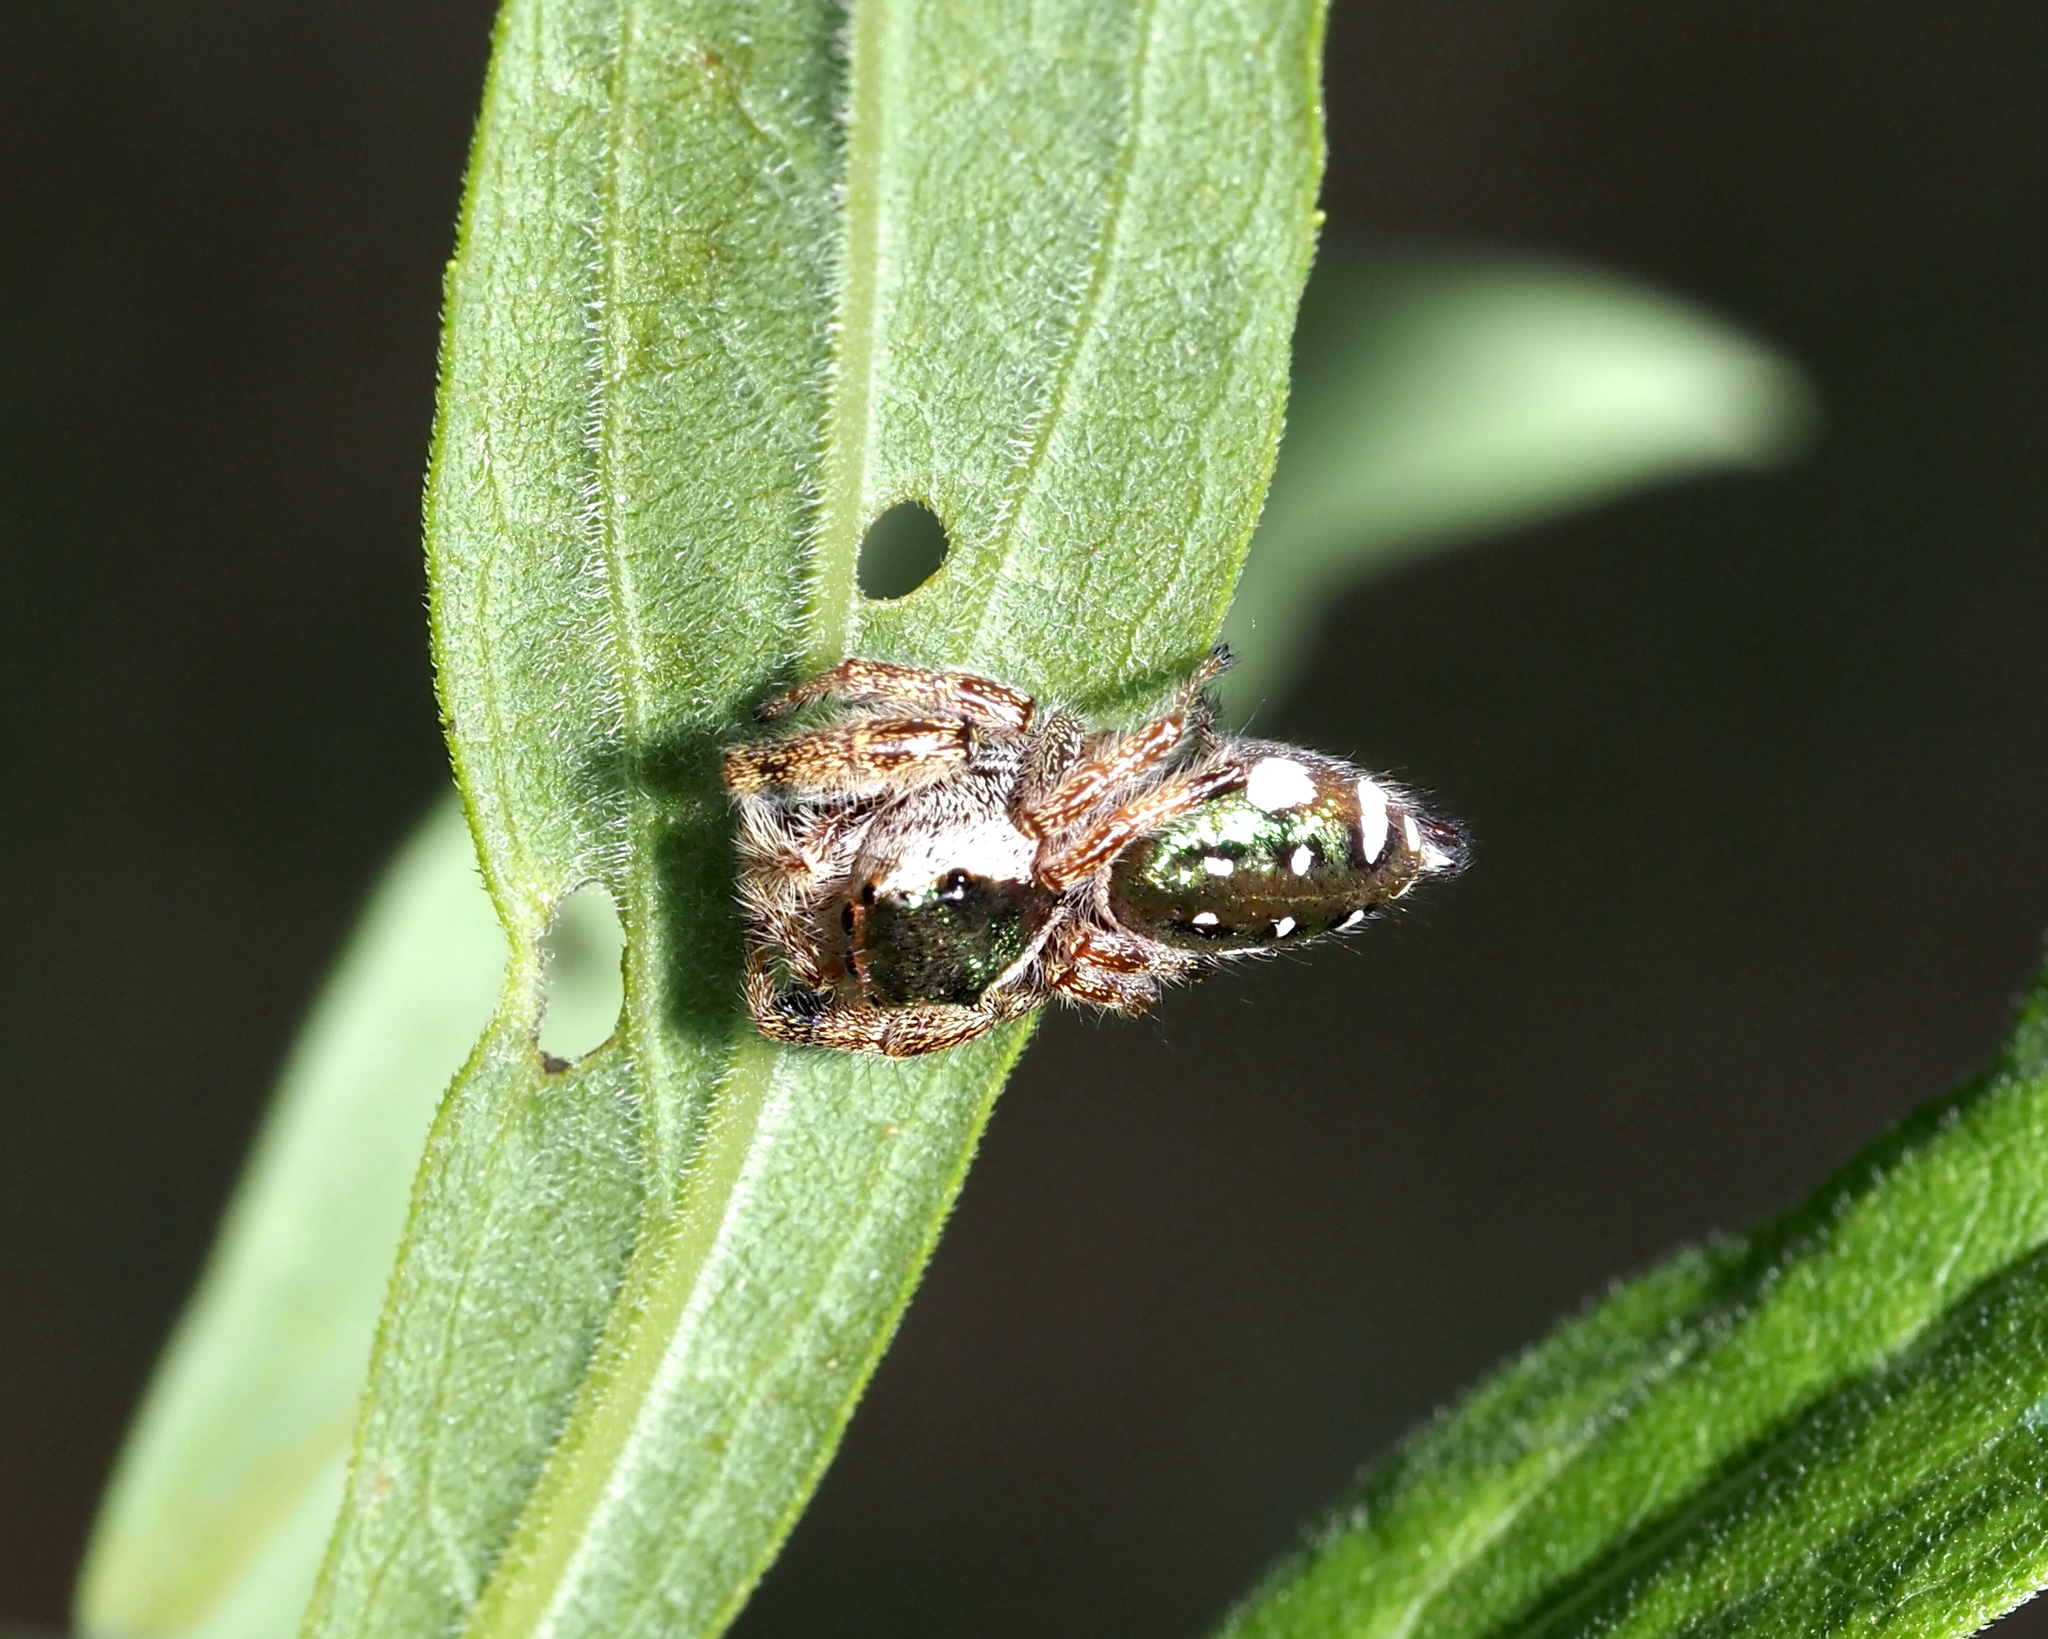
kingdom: Animalia
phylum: Arthropoda
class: Arachnida
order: Araneae
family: Salticidae
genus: Paraphidippus
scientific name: Paraphidippus aurantius
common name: Jumping spiders
